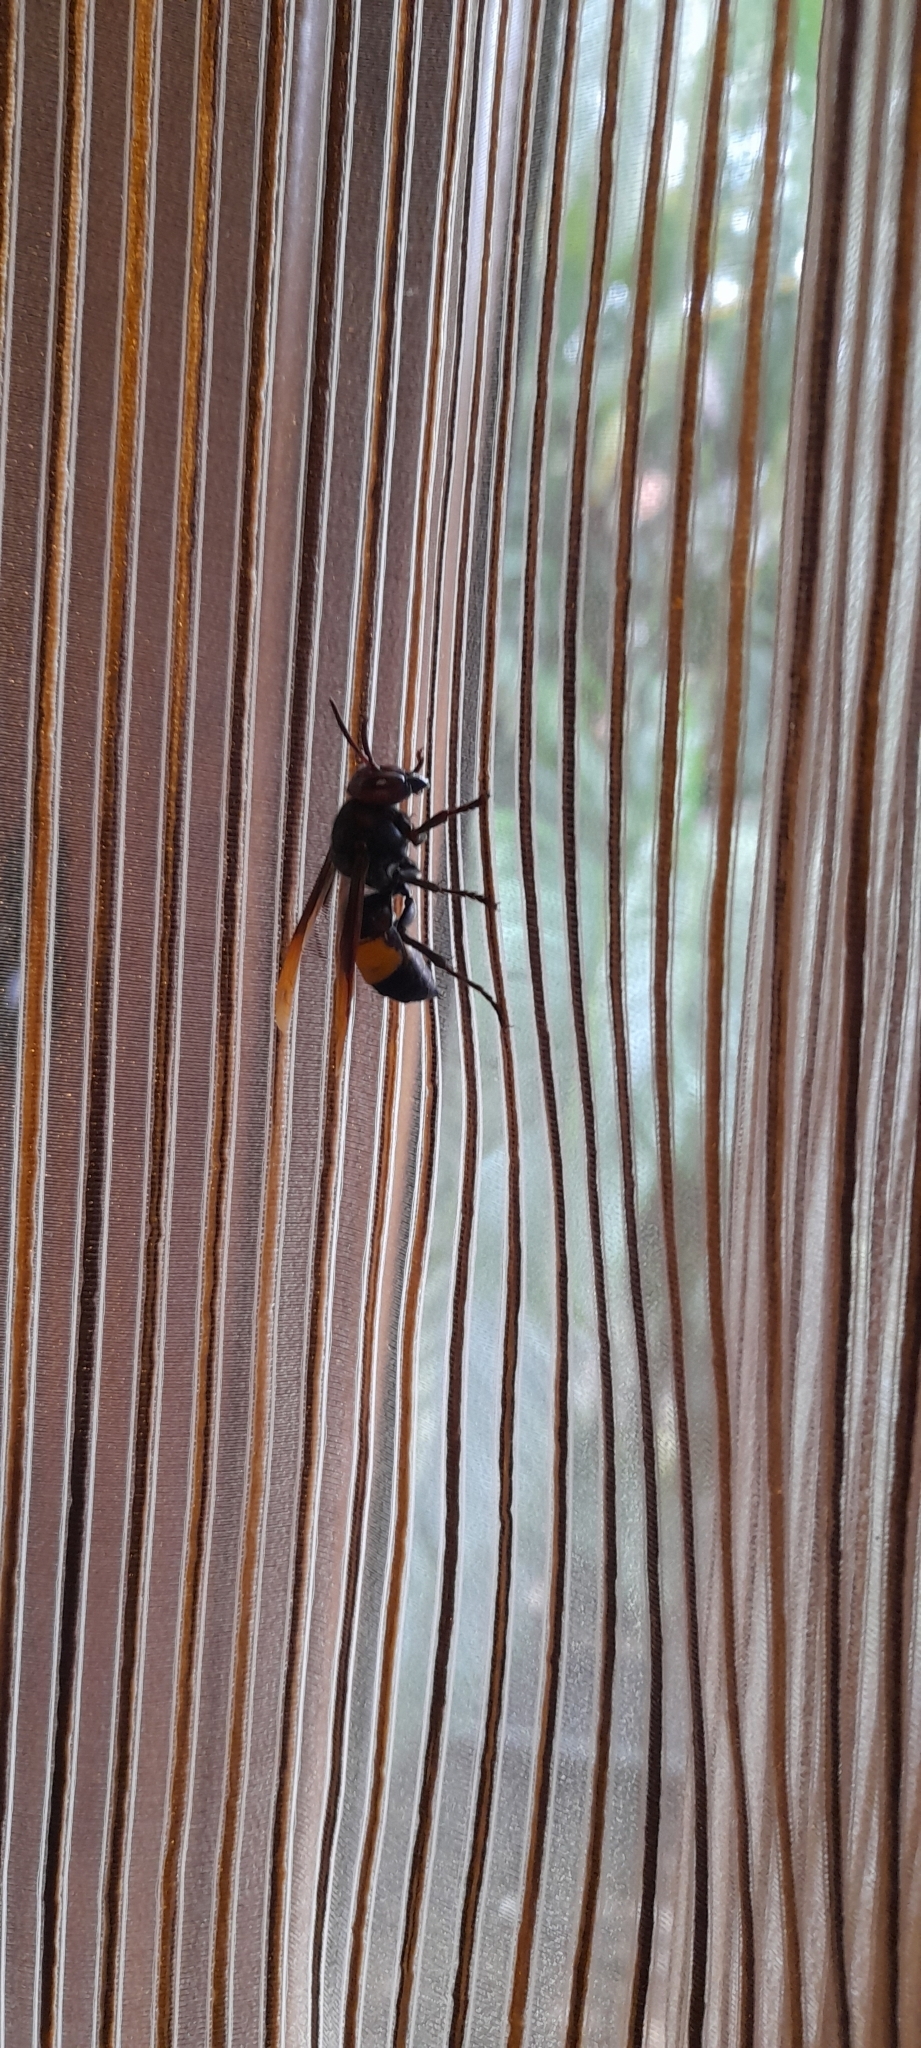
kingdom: Animalia
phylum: Arthropoda
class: Insecta
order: Hymenoptera
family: Vespidae
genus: Vespa
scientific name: Vespa tropica
